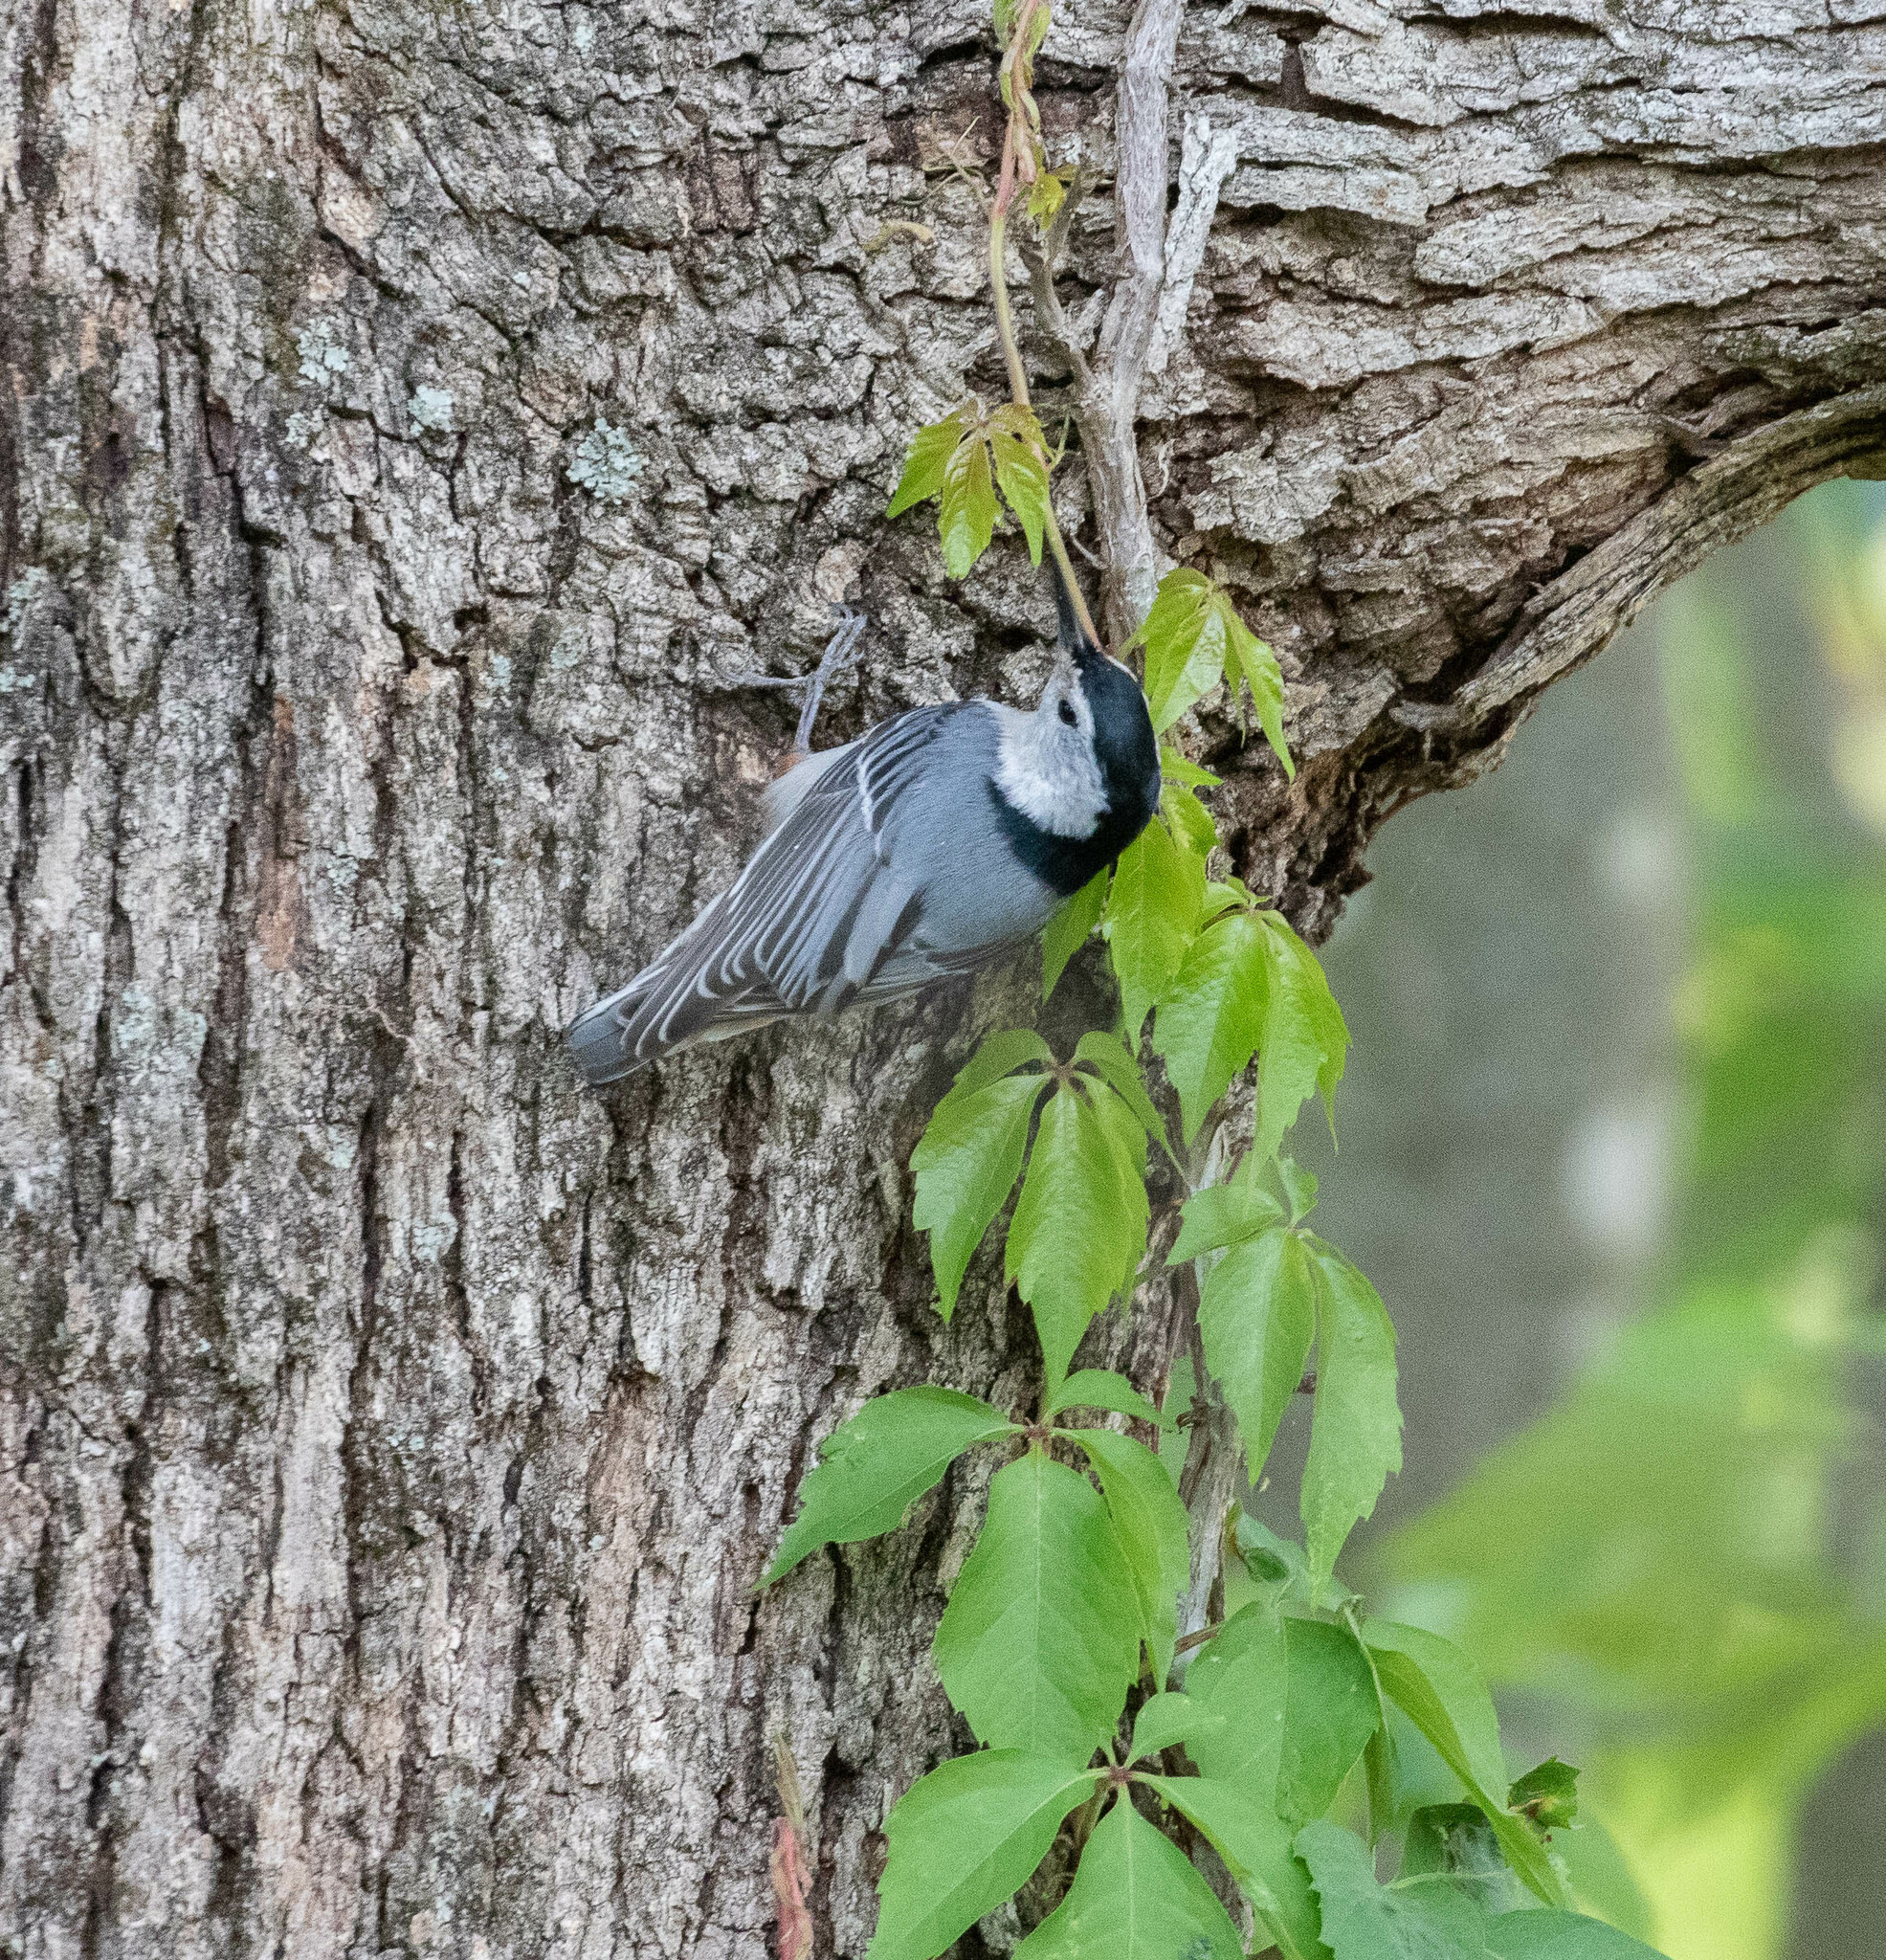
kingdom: Animalia
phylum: Chordata
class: Aves
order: Passeriformes
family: Sittidae
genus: Sitta
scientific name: Sitta carolinensis
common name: White-breasted nuthatch
